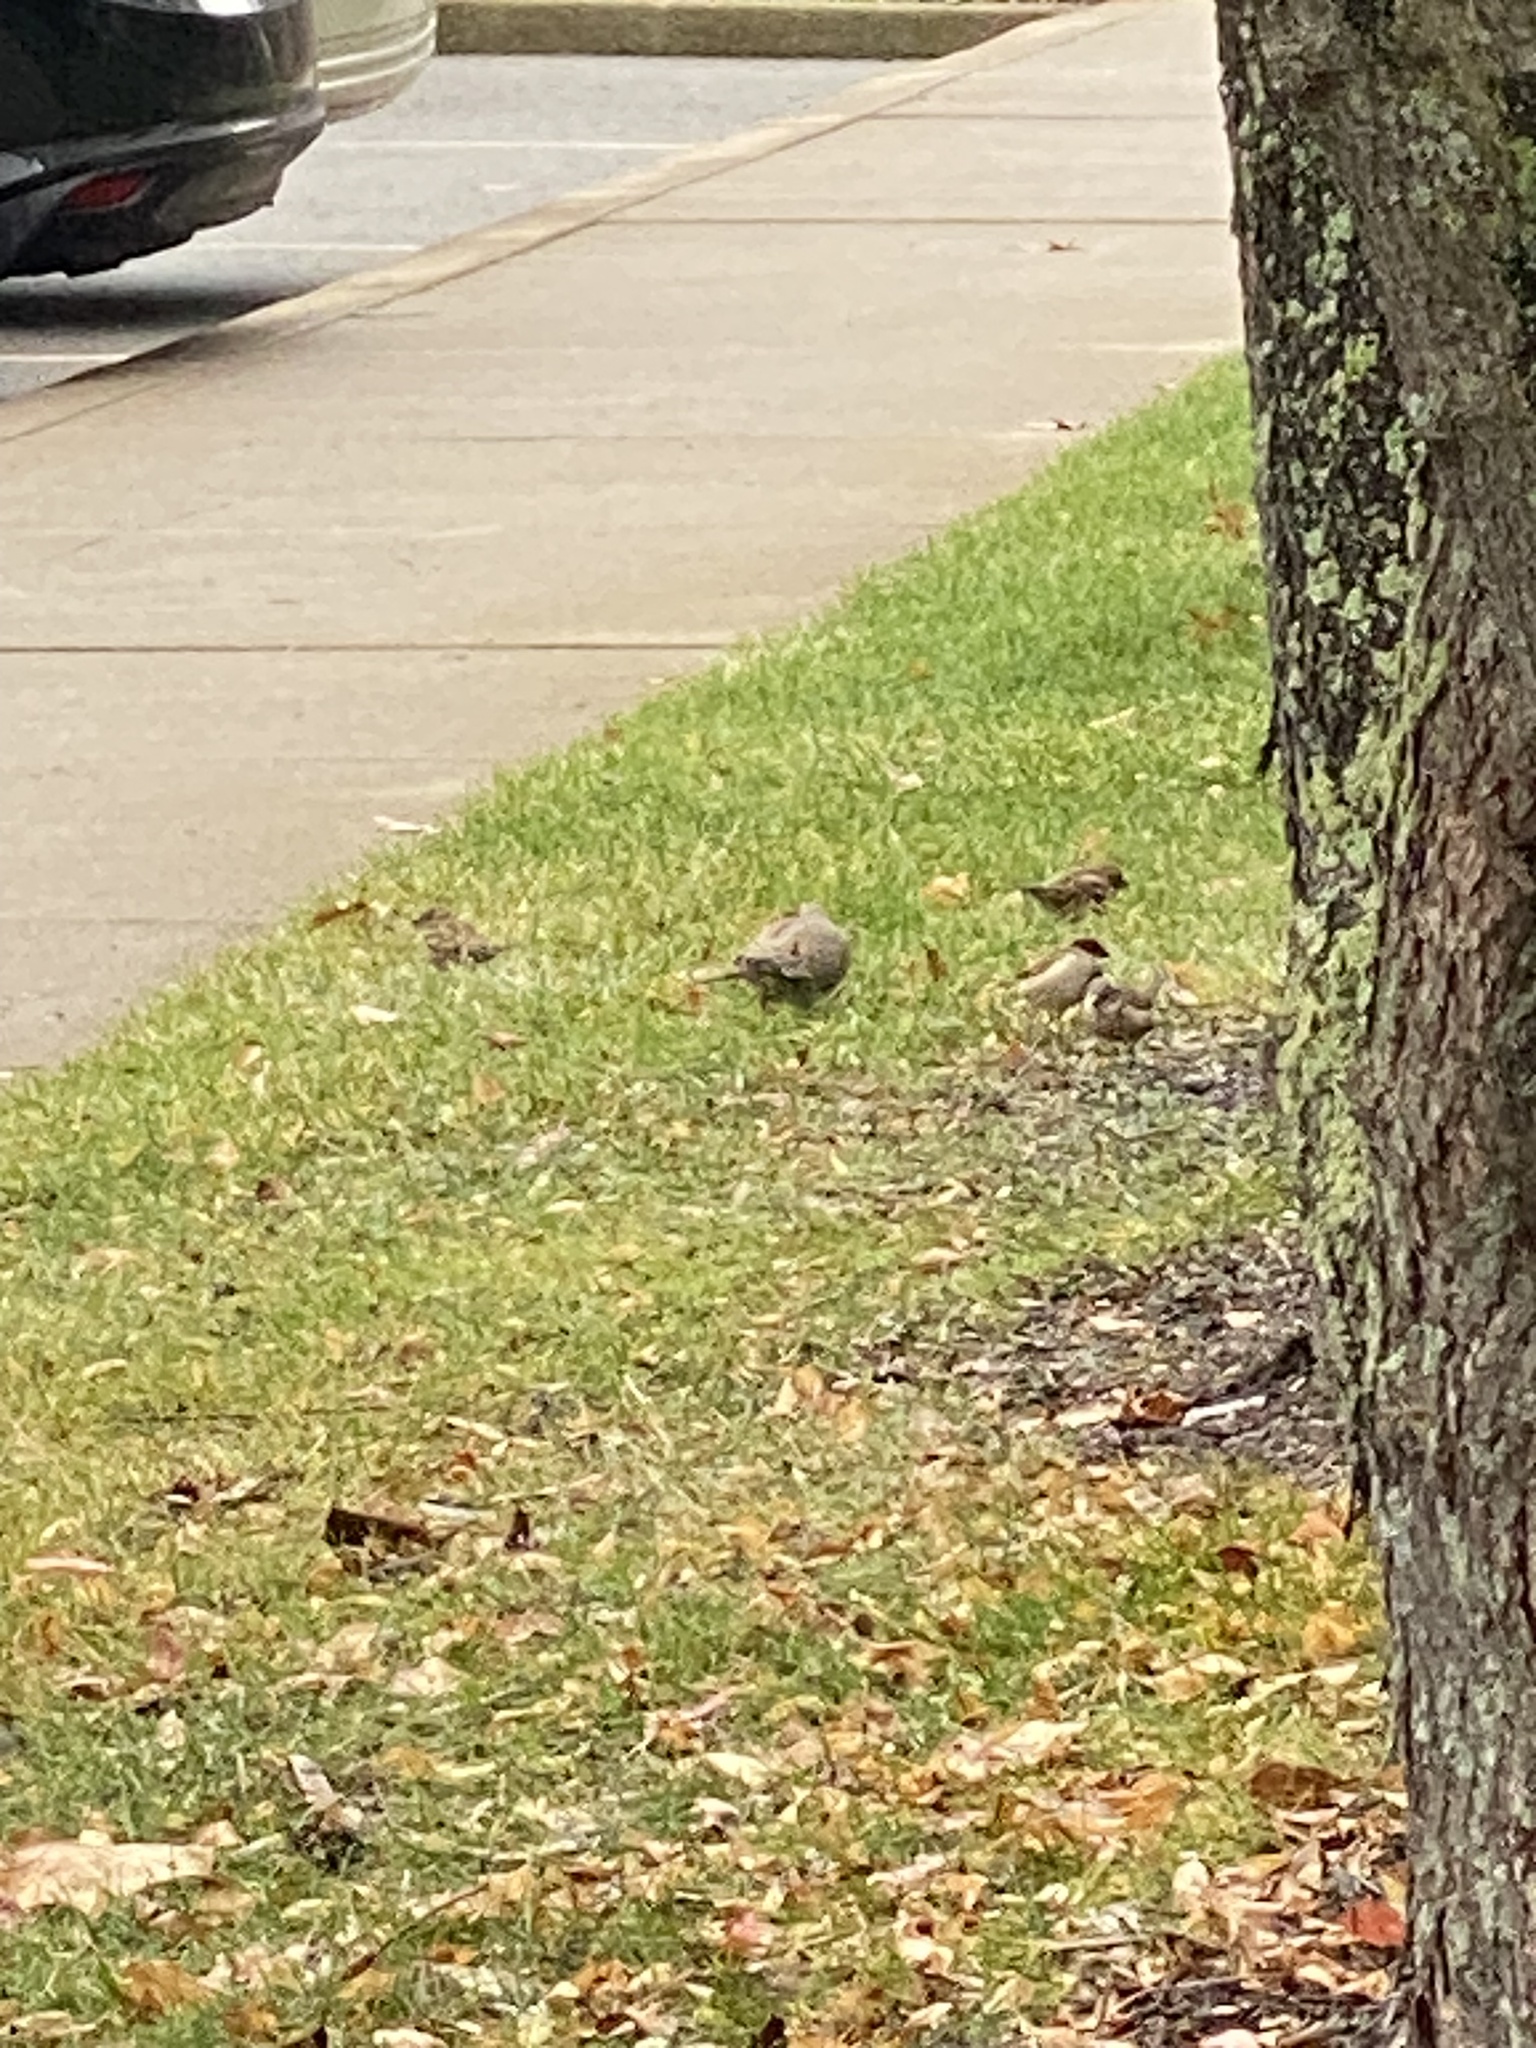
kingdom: Animalia
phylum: Chordata
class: Aves
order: Columbiformes
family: Columbidae
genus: Zenaida
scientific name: Zenaida macroura
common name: Mourning dove
